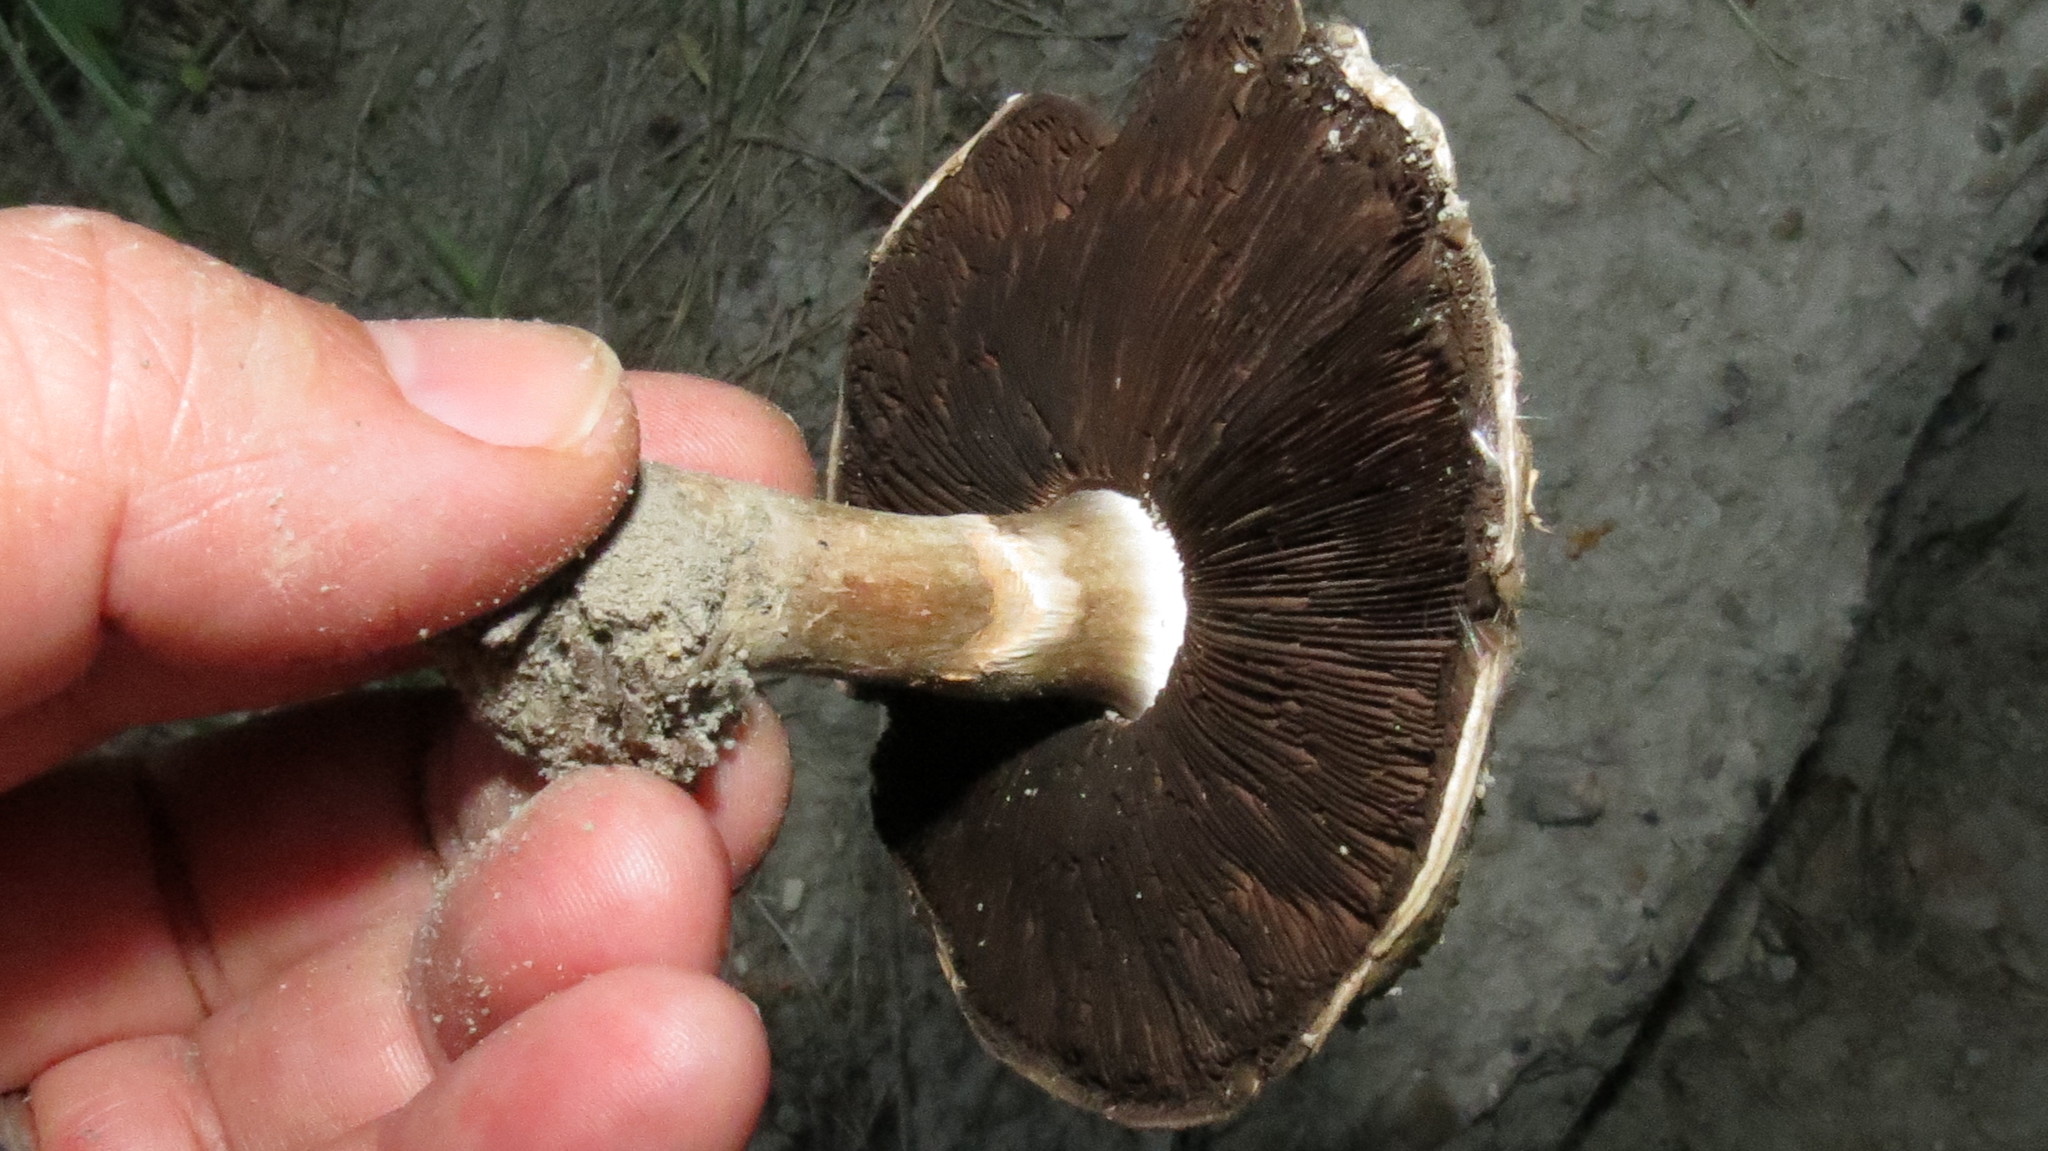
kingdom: Fungi
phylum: Basidiomycota
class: Agaricomycetes
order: Agaricales
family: Agaricaceae
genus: Agaricus
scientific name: Agaricus bisporus
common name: Cultivated mushroom
